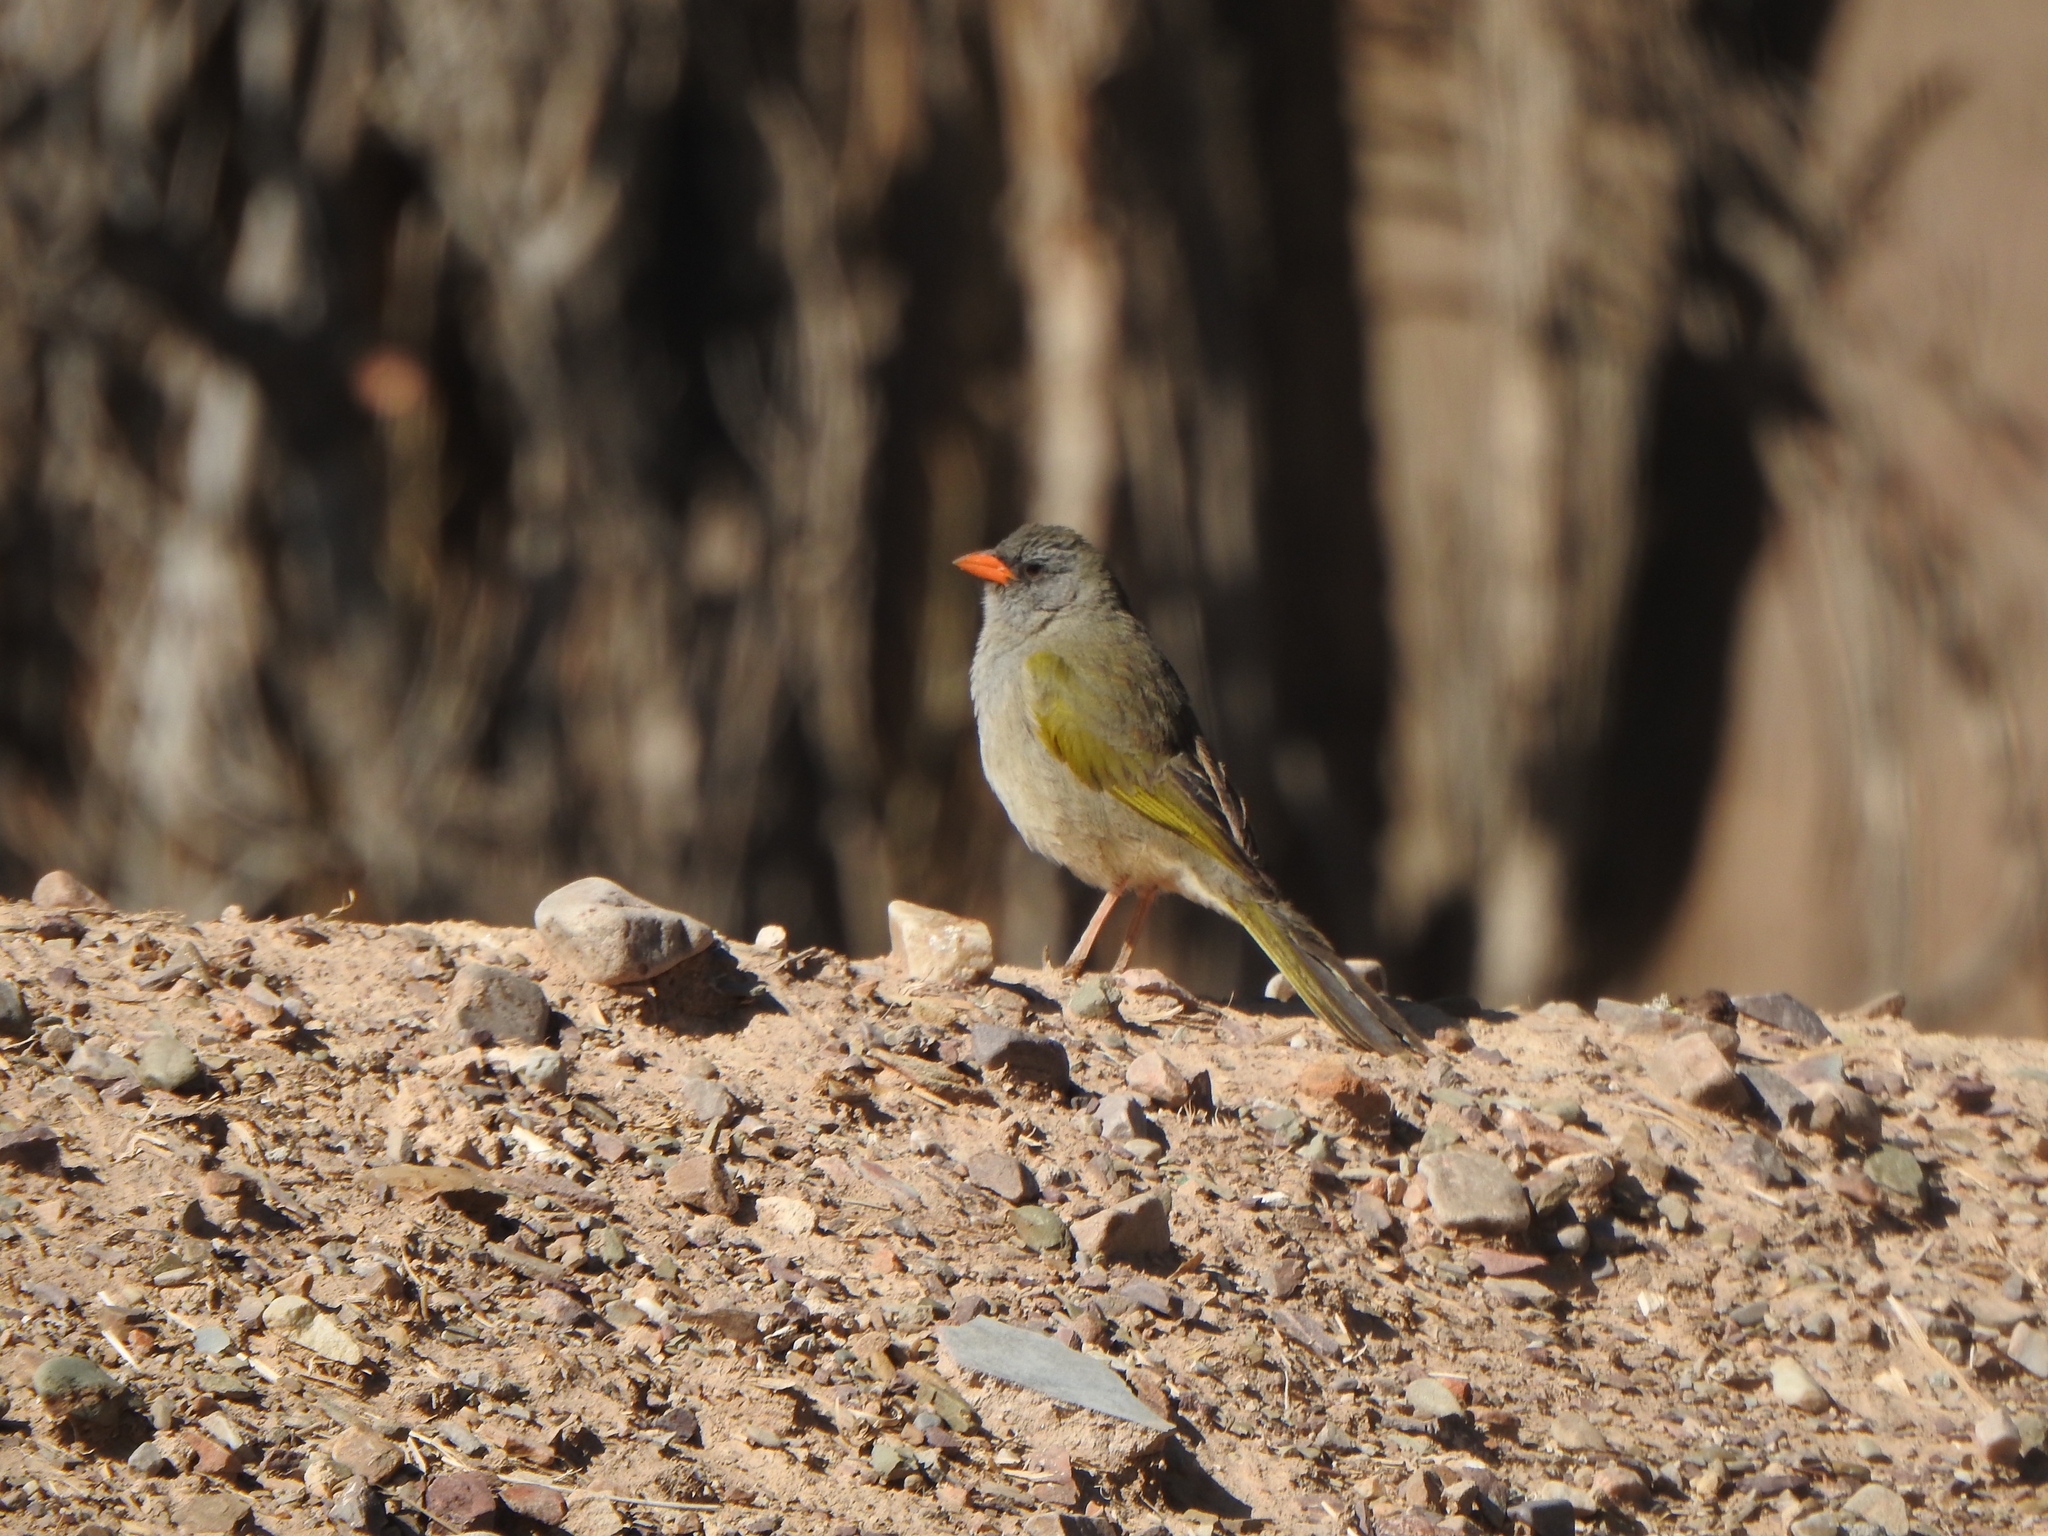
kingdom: Animalia
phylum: Chordata
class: Aves
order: Passeriformes
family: Thraupidae
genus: Embernagra
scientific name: Embernagra platensis
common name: Pampa finch
